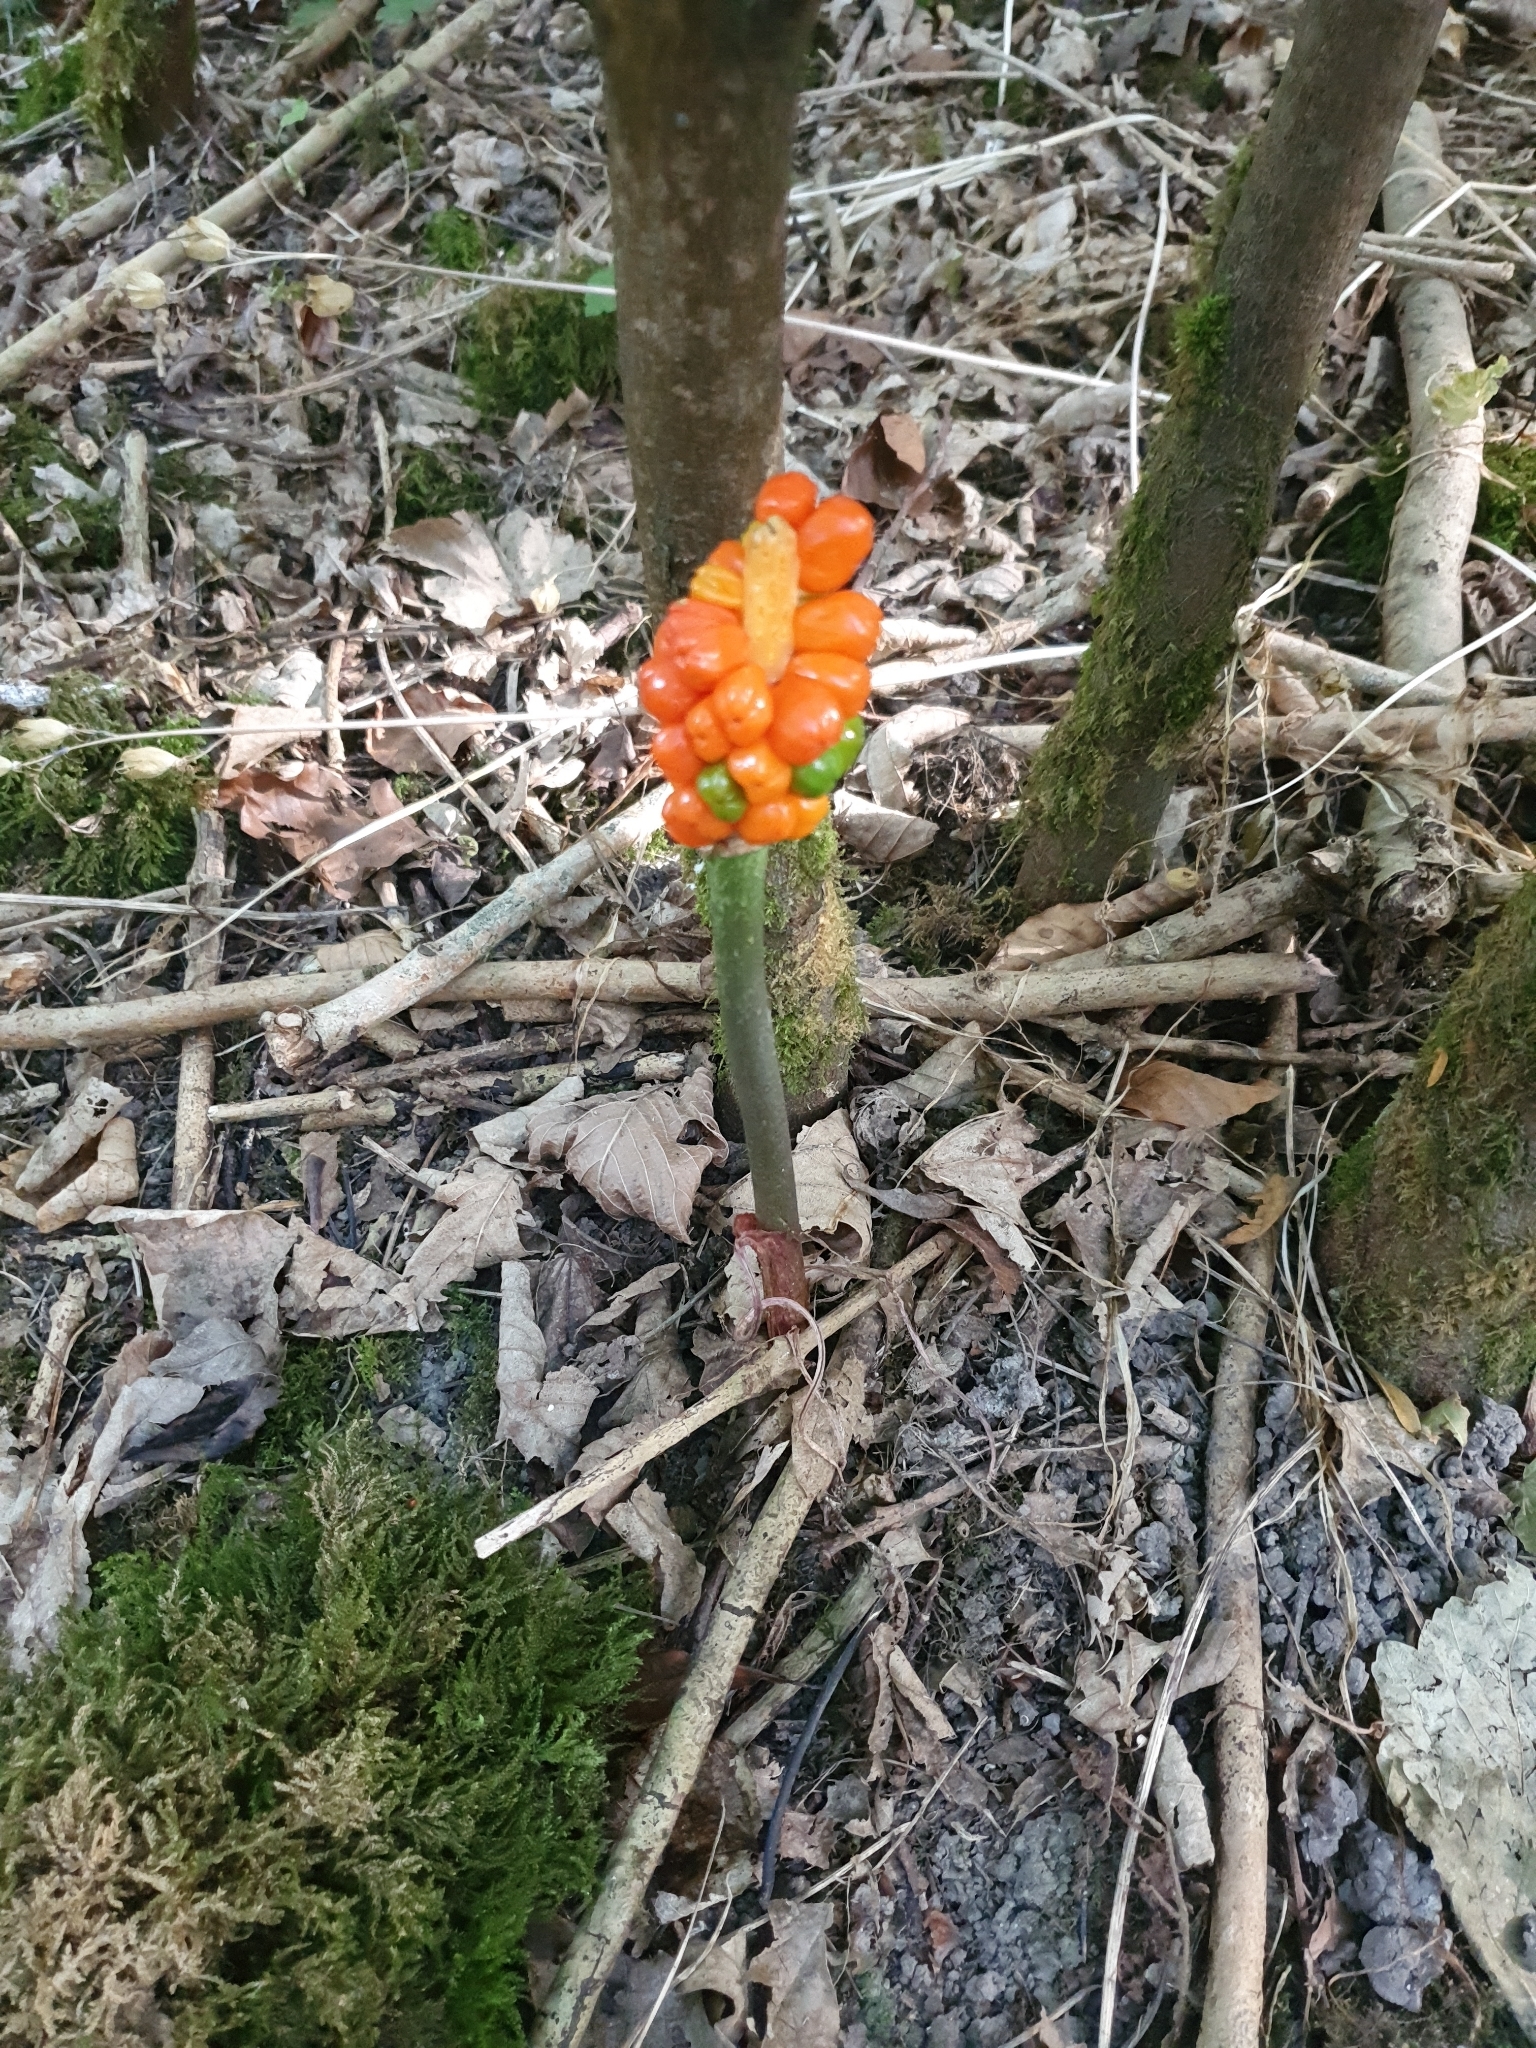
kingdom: Plantae
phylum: Tracheophyta
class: Liliopsida
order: Alismatales
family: Araceae
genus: Arum
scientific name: Arum maculatum
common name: Lords-and-ladies
